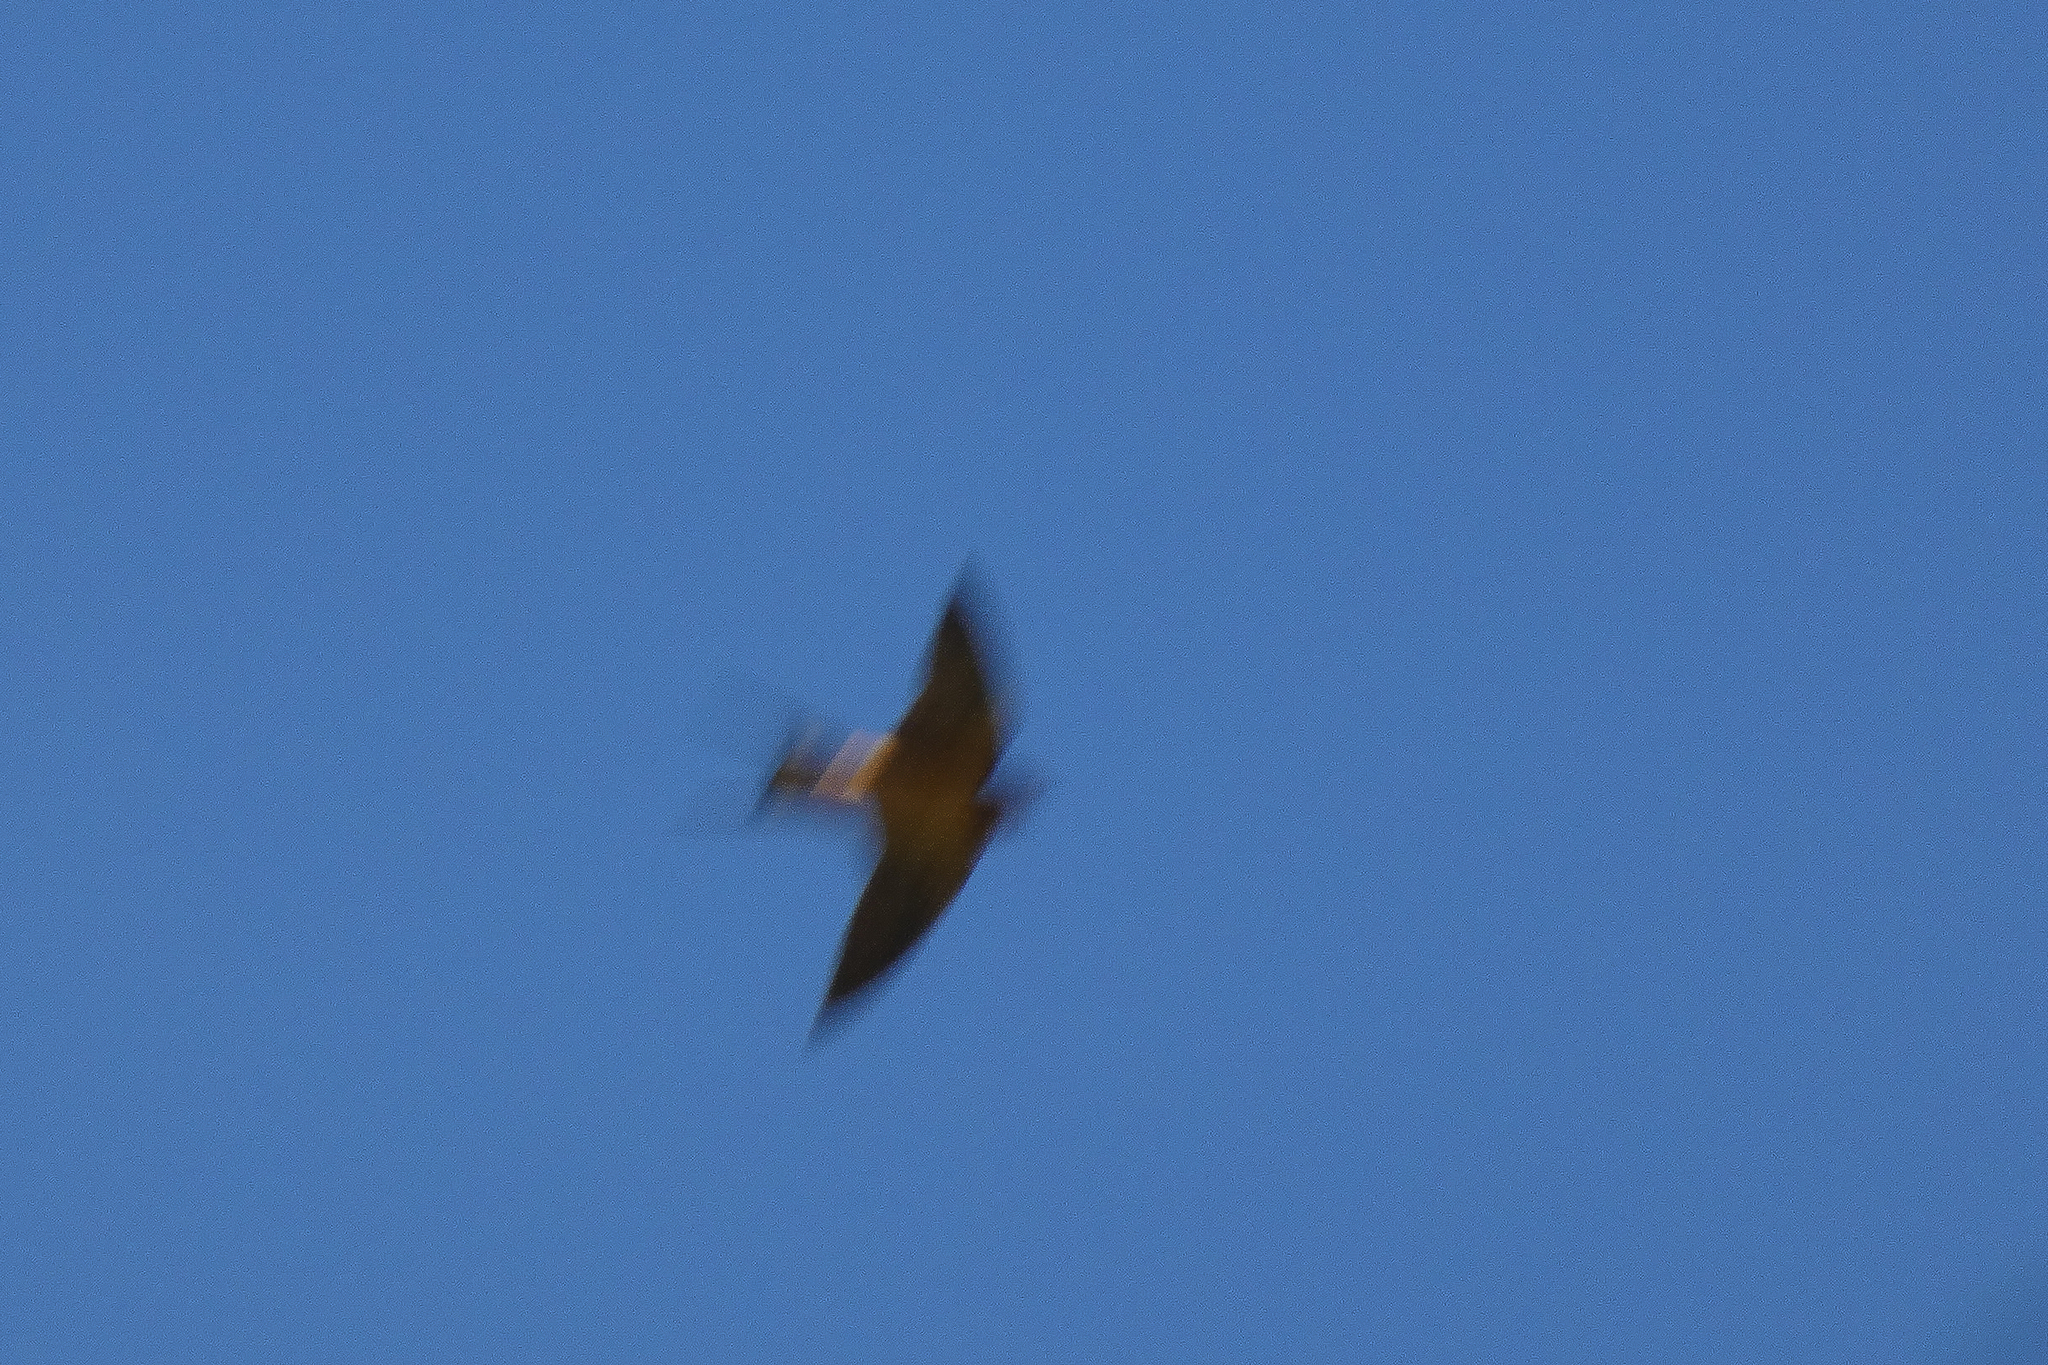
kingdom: Animalia
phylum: Chordata
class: Aves
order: Passeriformes
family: Hirundinidae
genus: Hirundo
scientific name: Hirundo rustica
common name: Barn swallow
